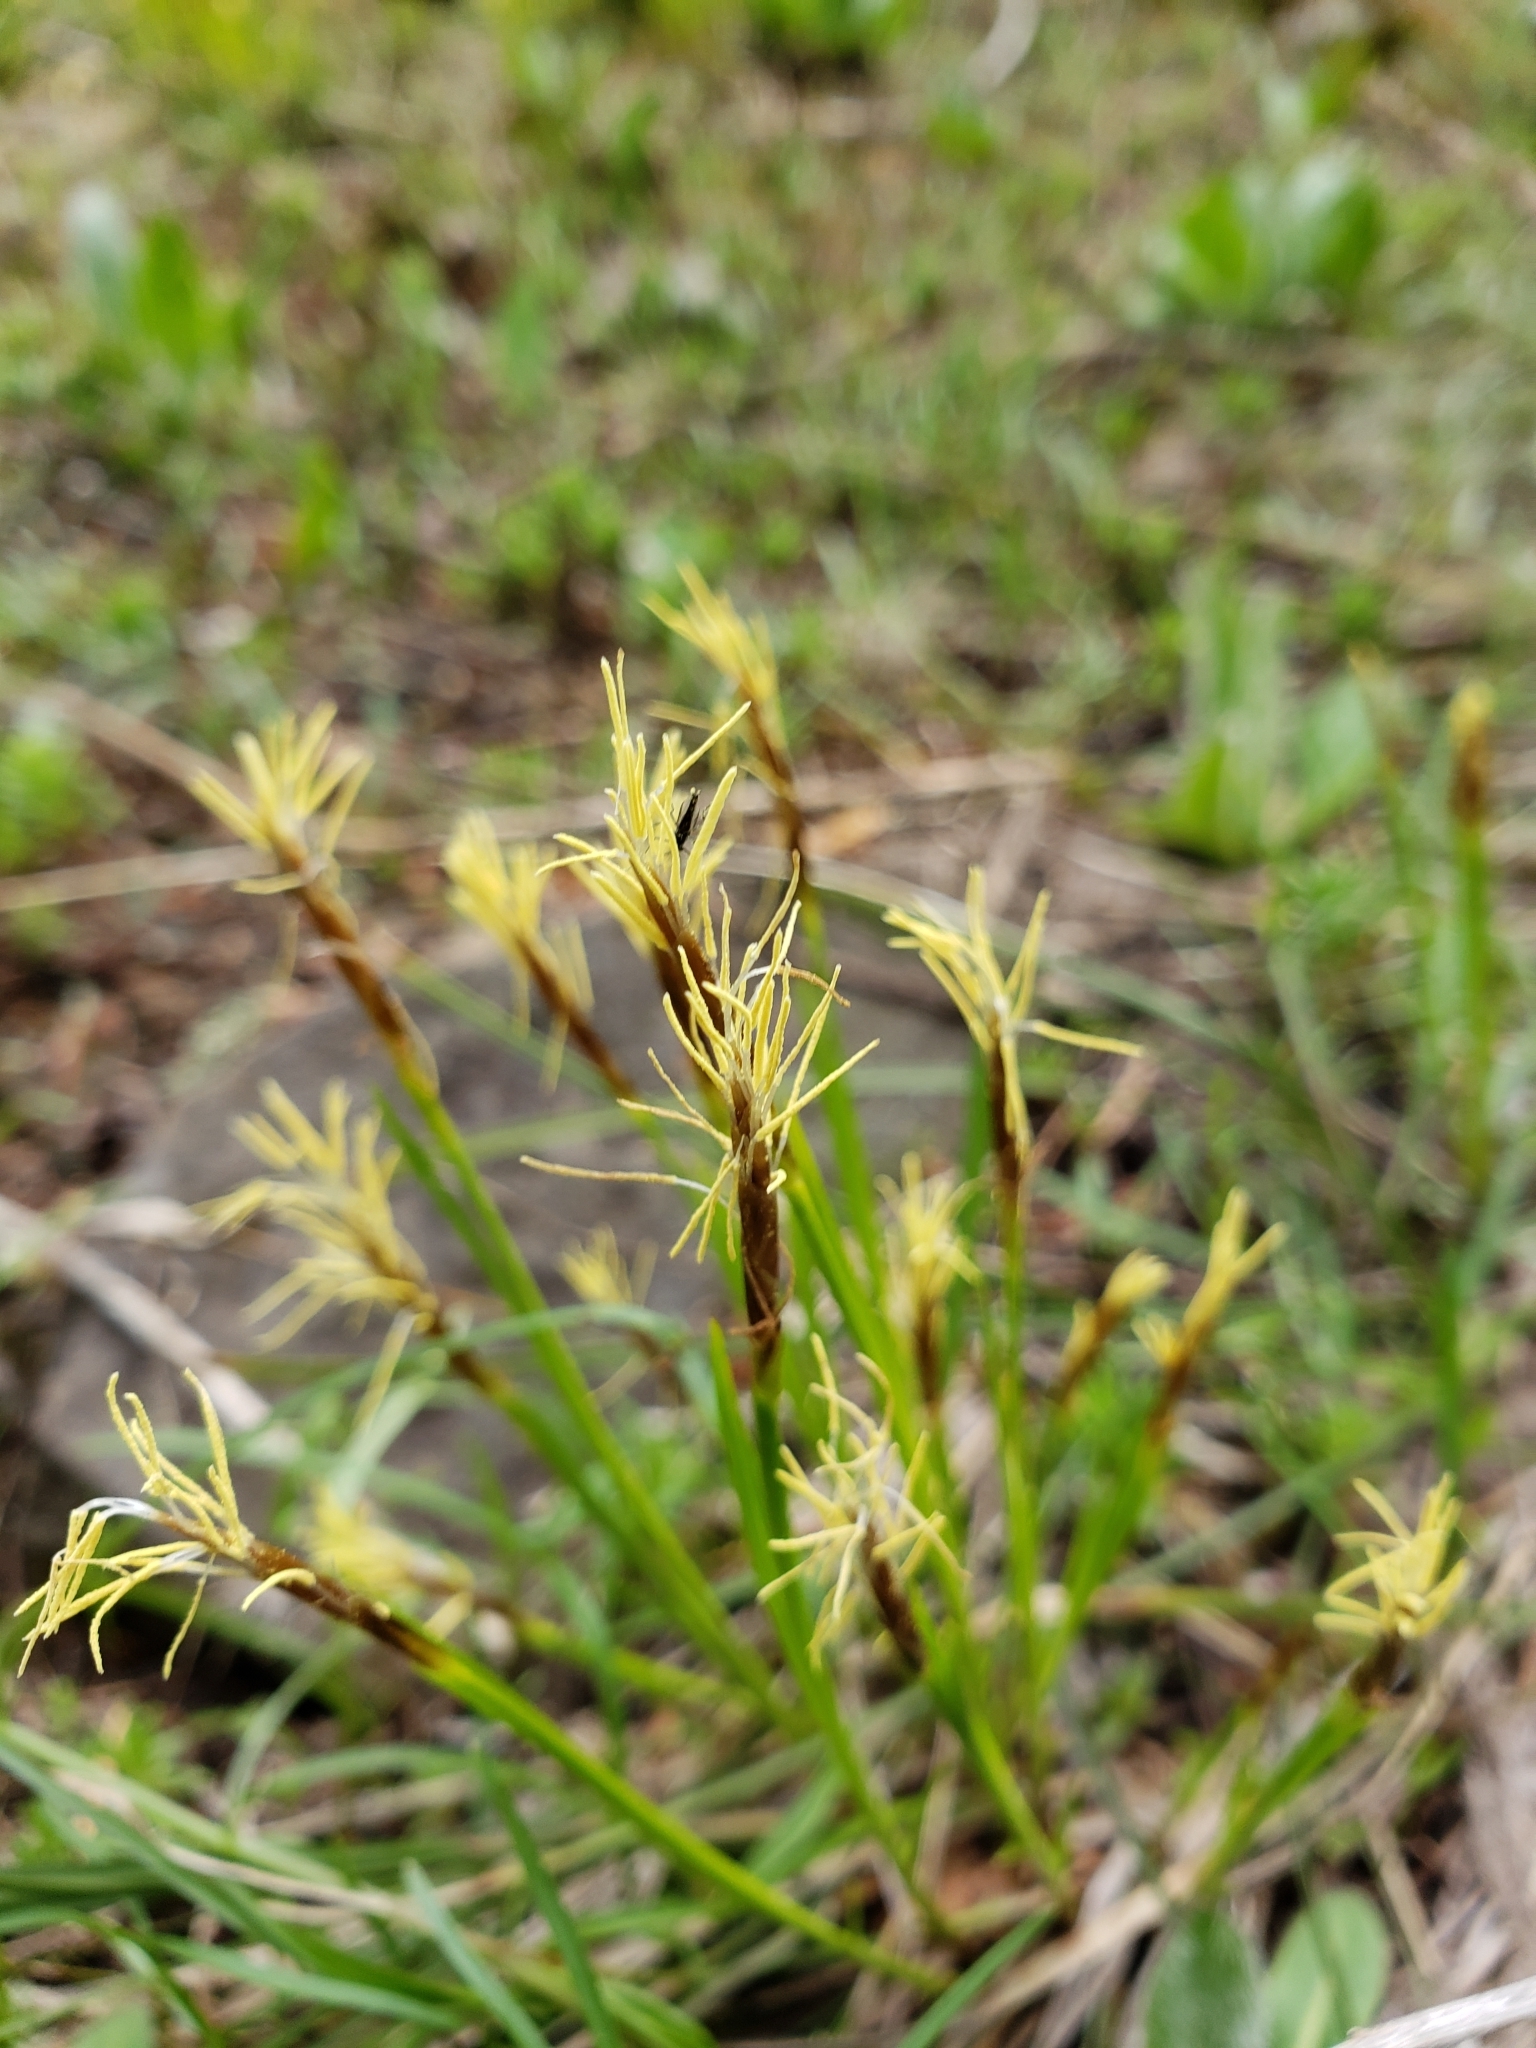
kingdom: Plantae
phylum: Tracheophyta
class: Liliopsida
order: Poales
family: Cyperaceae
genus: Carex
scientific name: Carex geyeri
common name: Elk sedge
